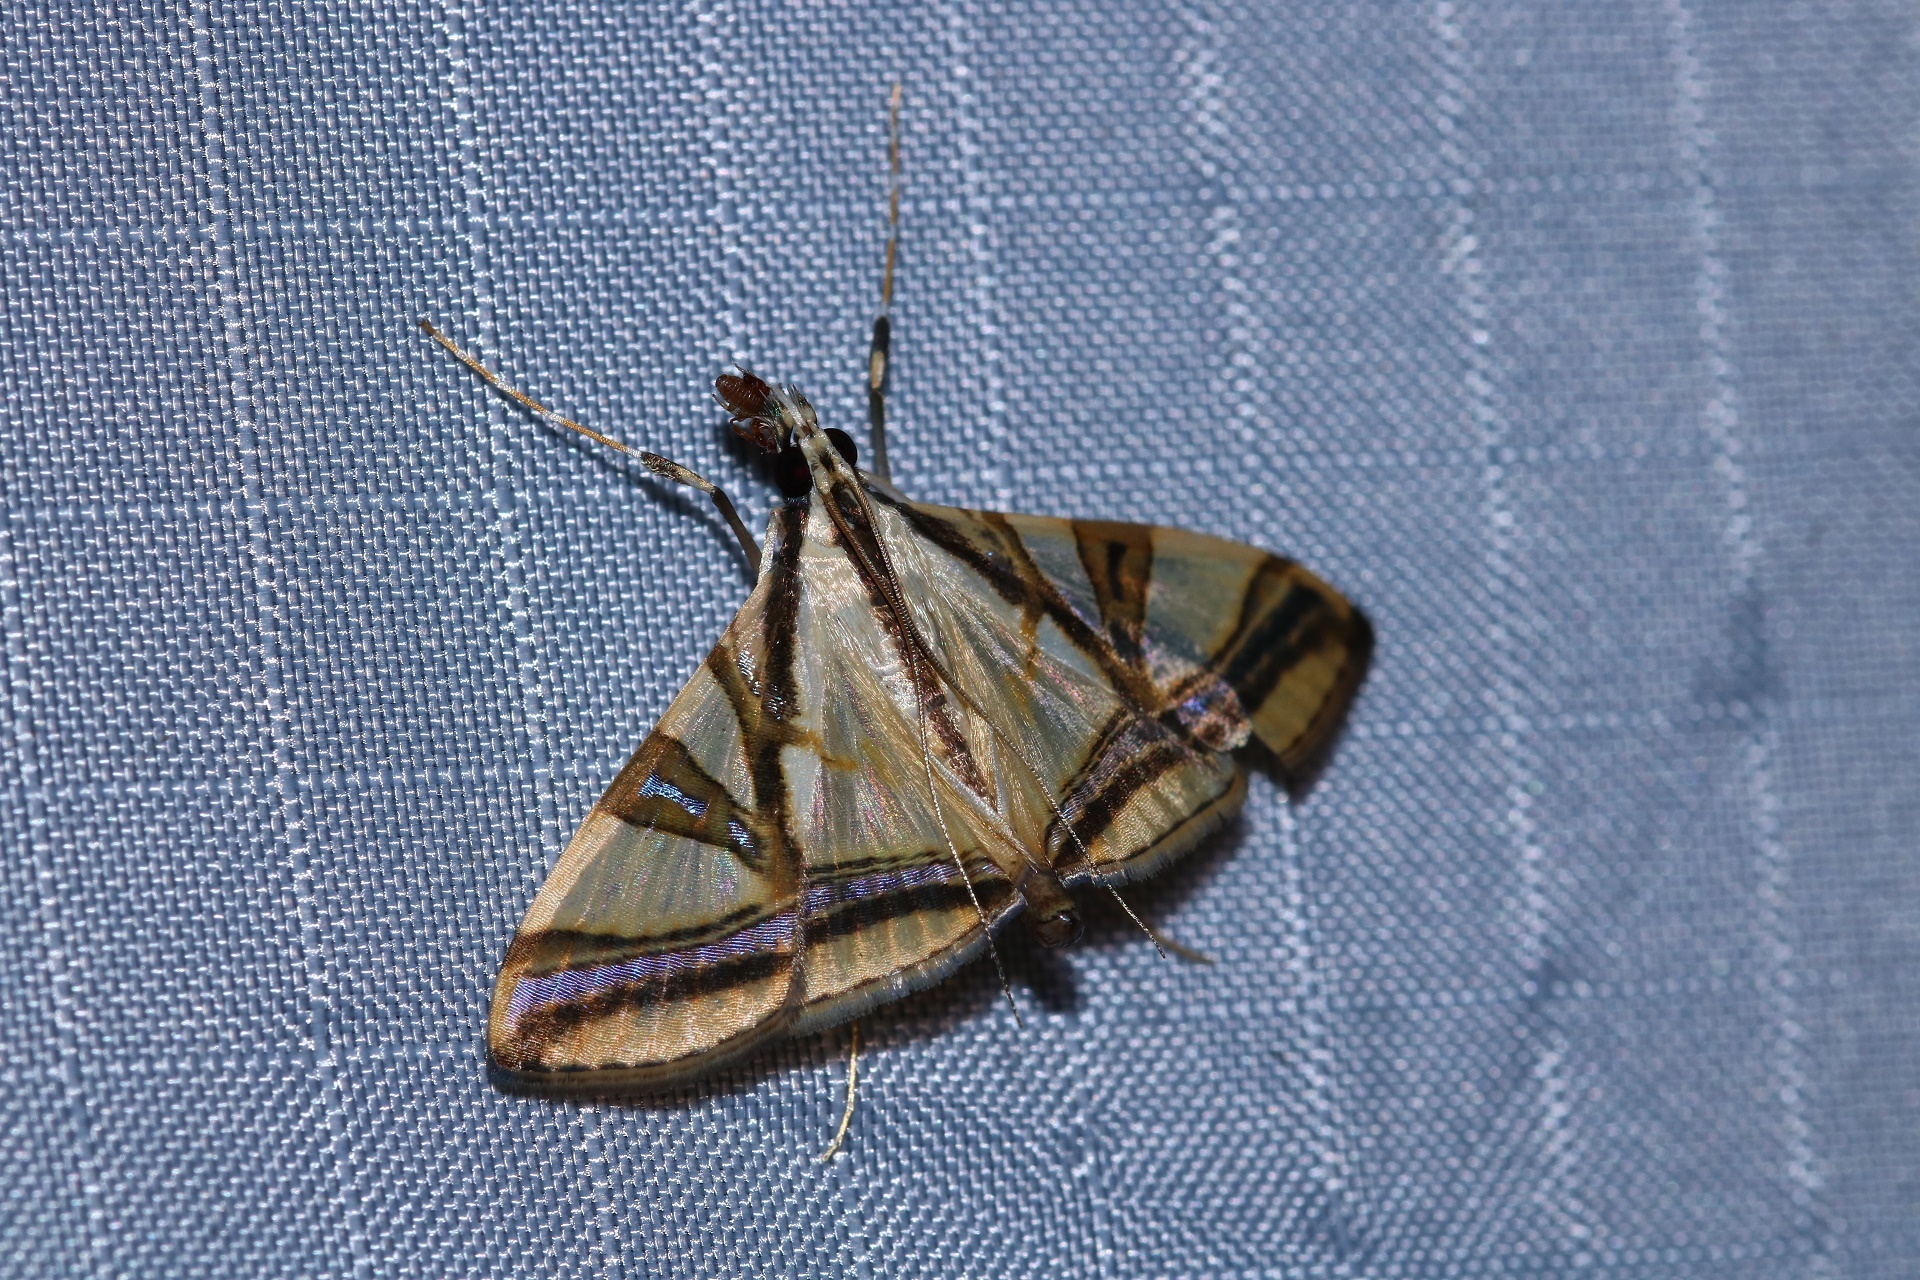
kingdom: Animalia
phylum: Arthropoda
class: Insecta
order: Lepidoptera
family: Crambidae
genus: Agrioglypta
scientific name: Agrioglypta naralis
